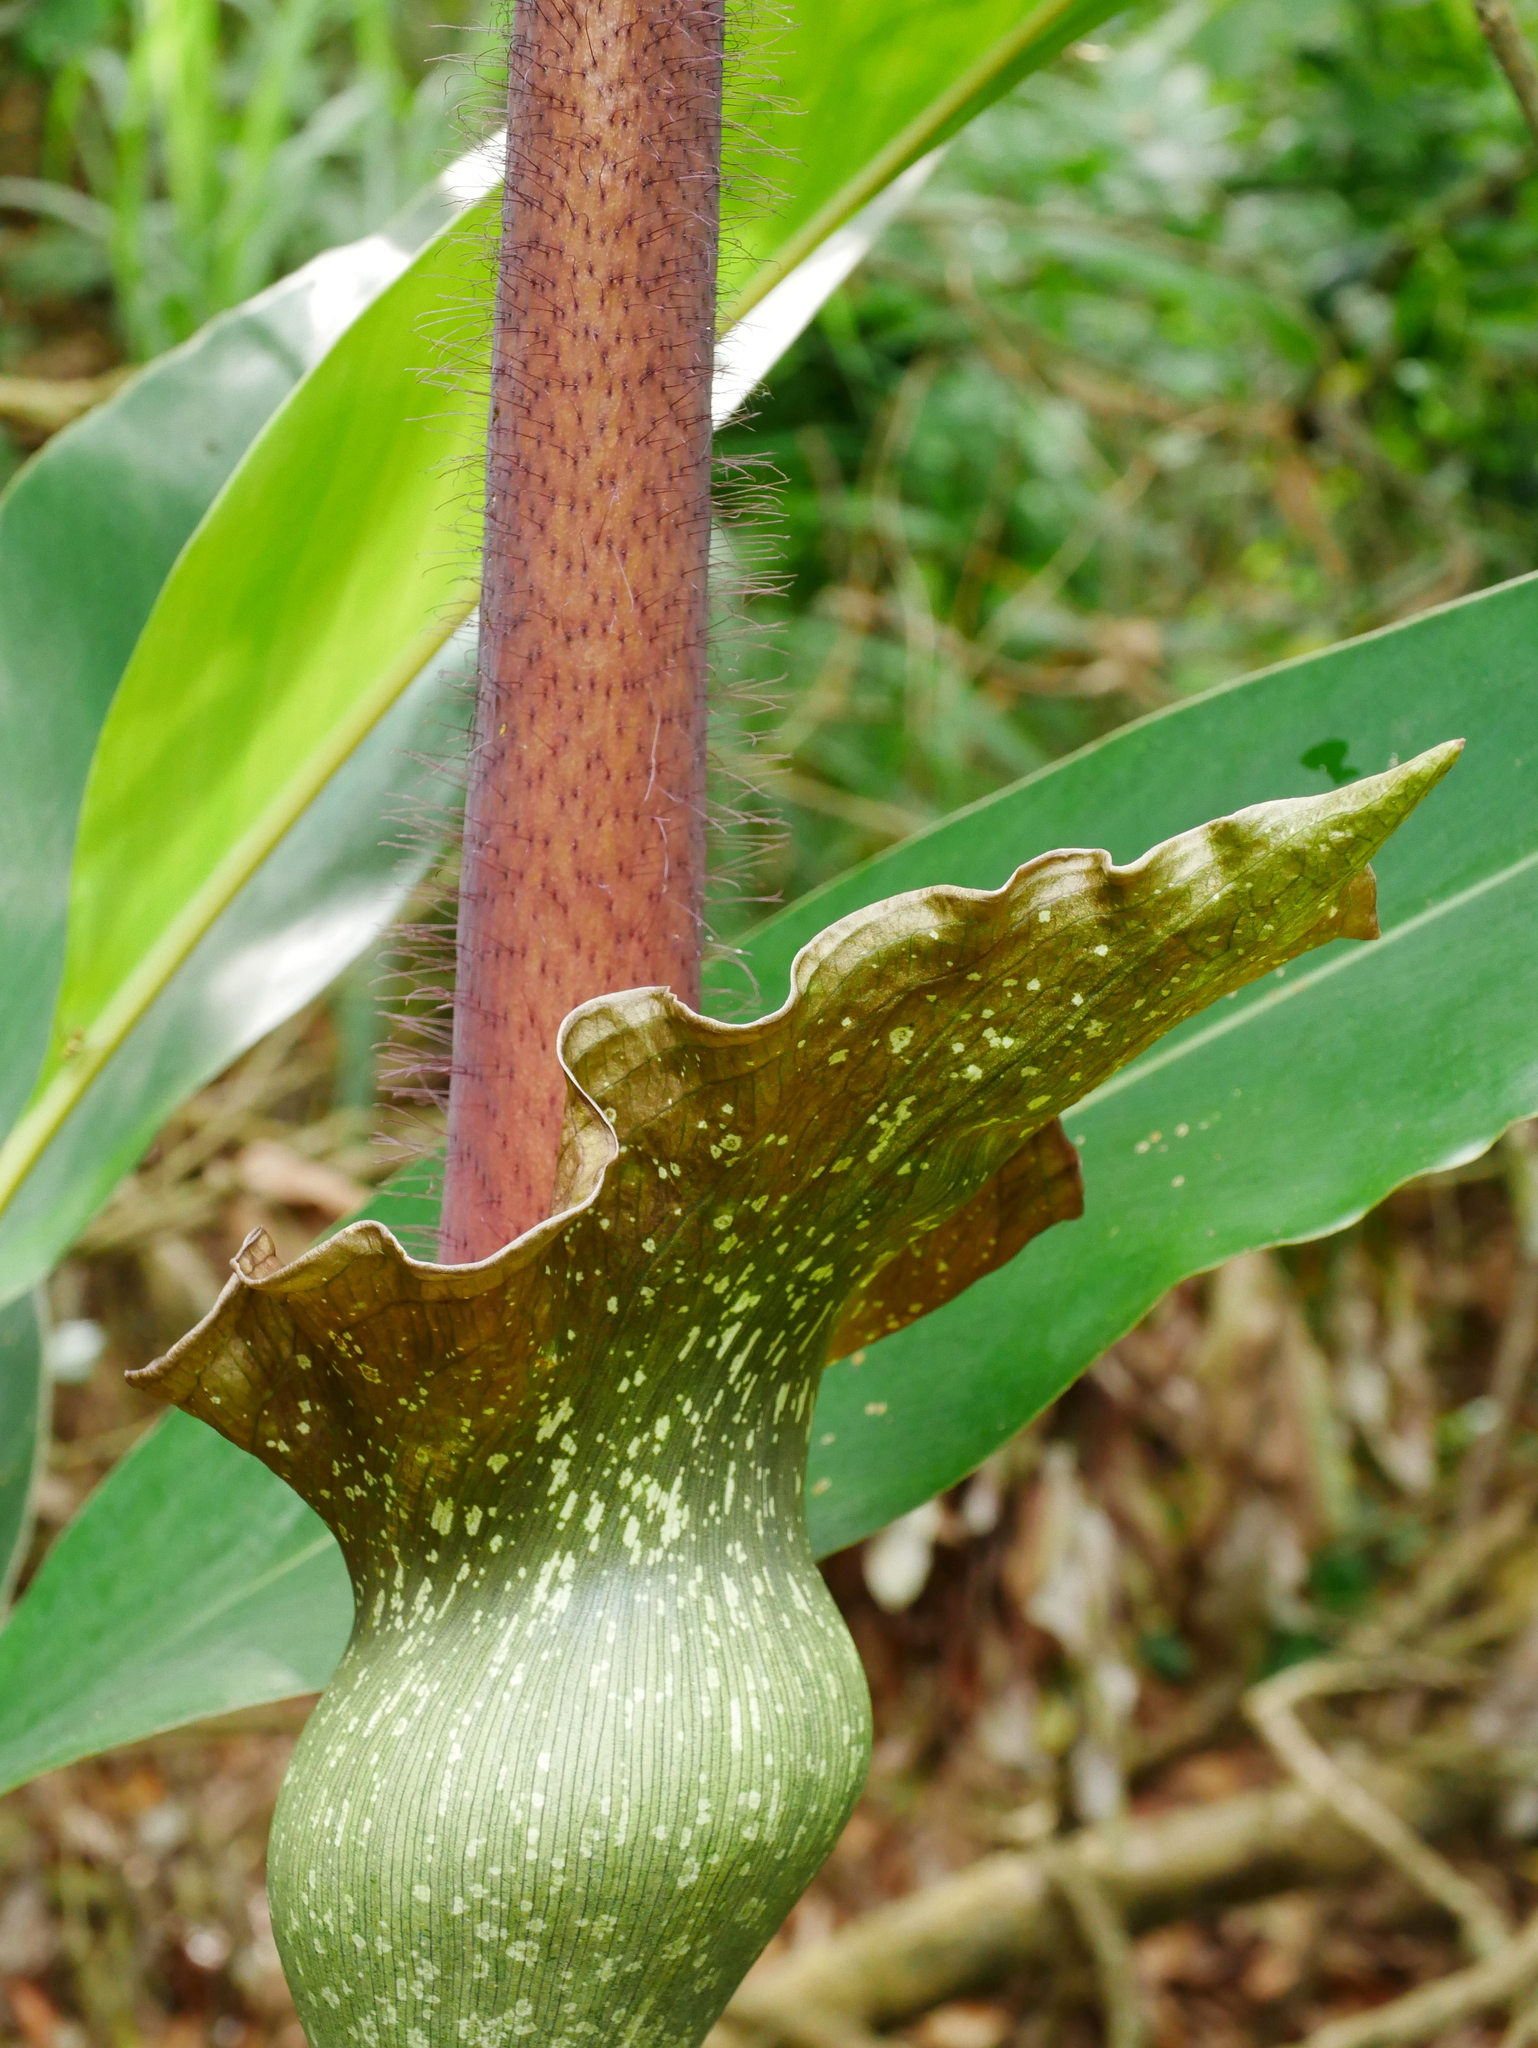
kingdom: Plantae
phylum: Tracheophyta
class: Liliopsida
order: Alismatales
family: Araceae
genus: Amorphophallus
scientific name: Amorphophallus hirtus
